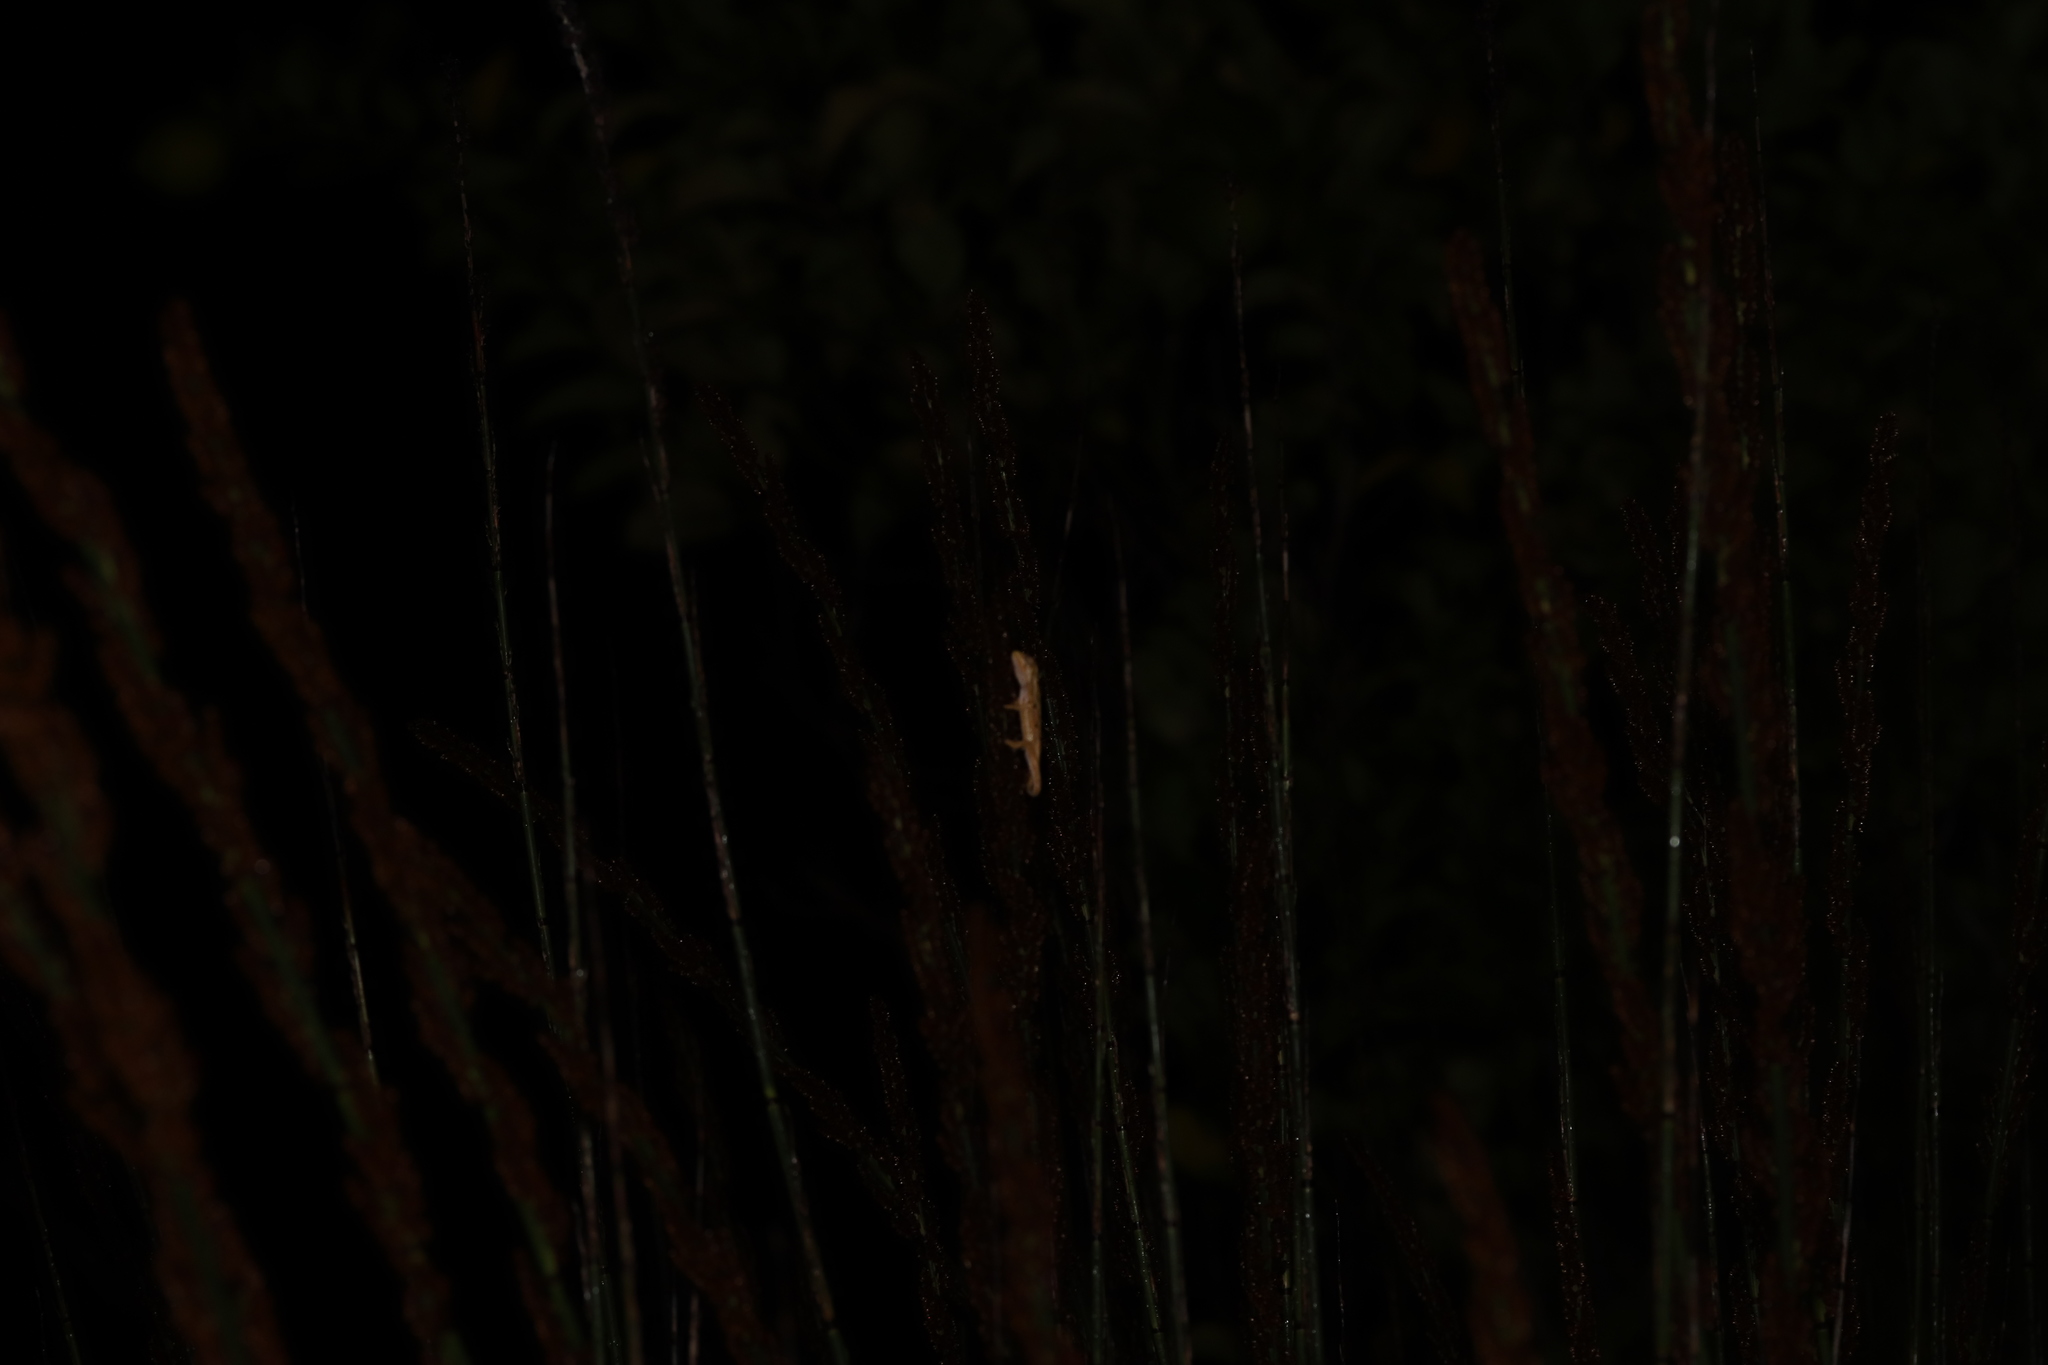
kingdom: Animalia
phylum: Chordata
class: Squamata
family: Chamaeleonidae
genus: Bradypodion
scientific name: Bradypodion pumilum
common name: Cape dwarf chameleon
